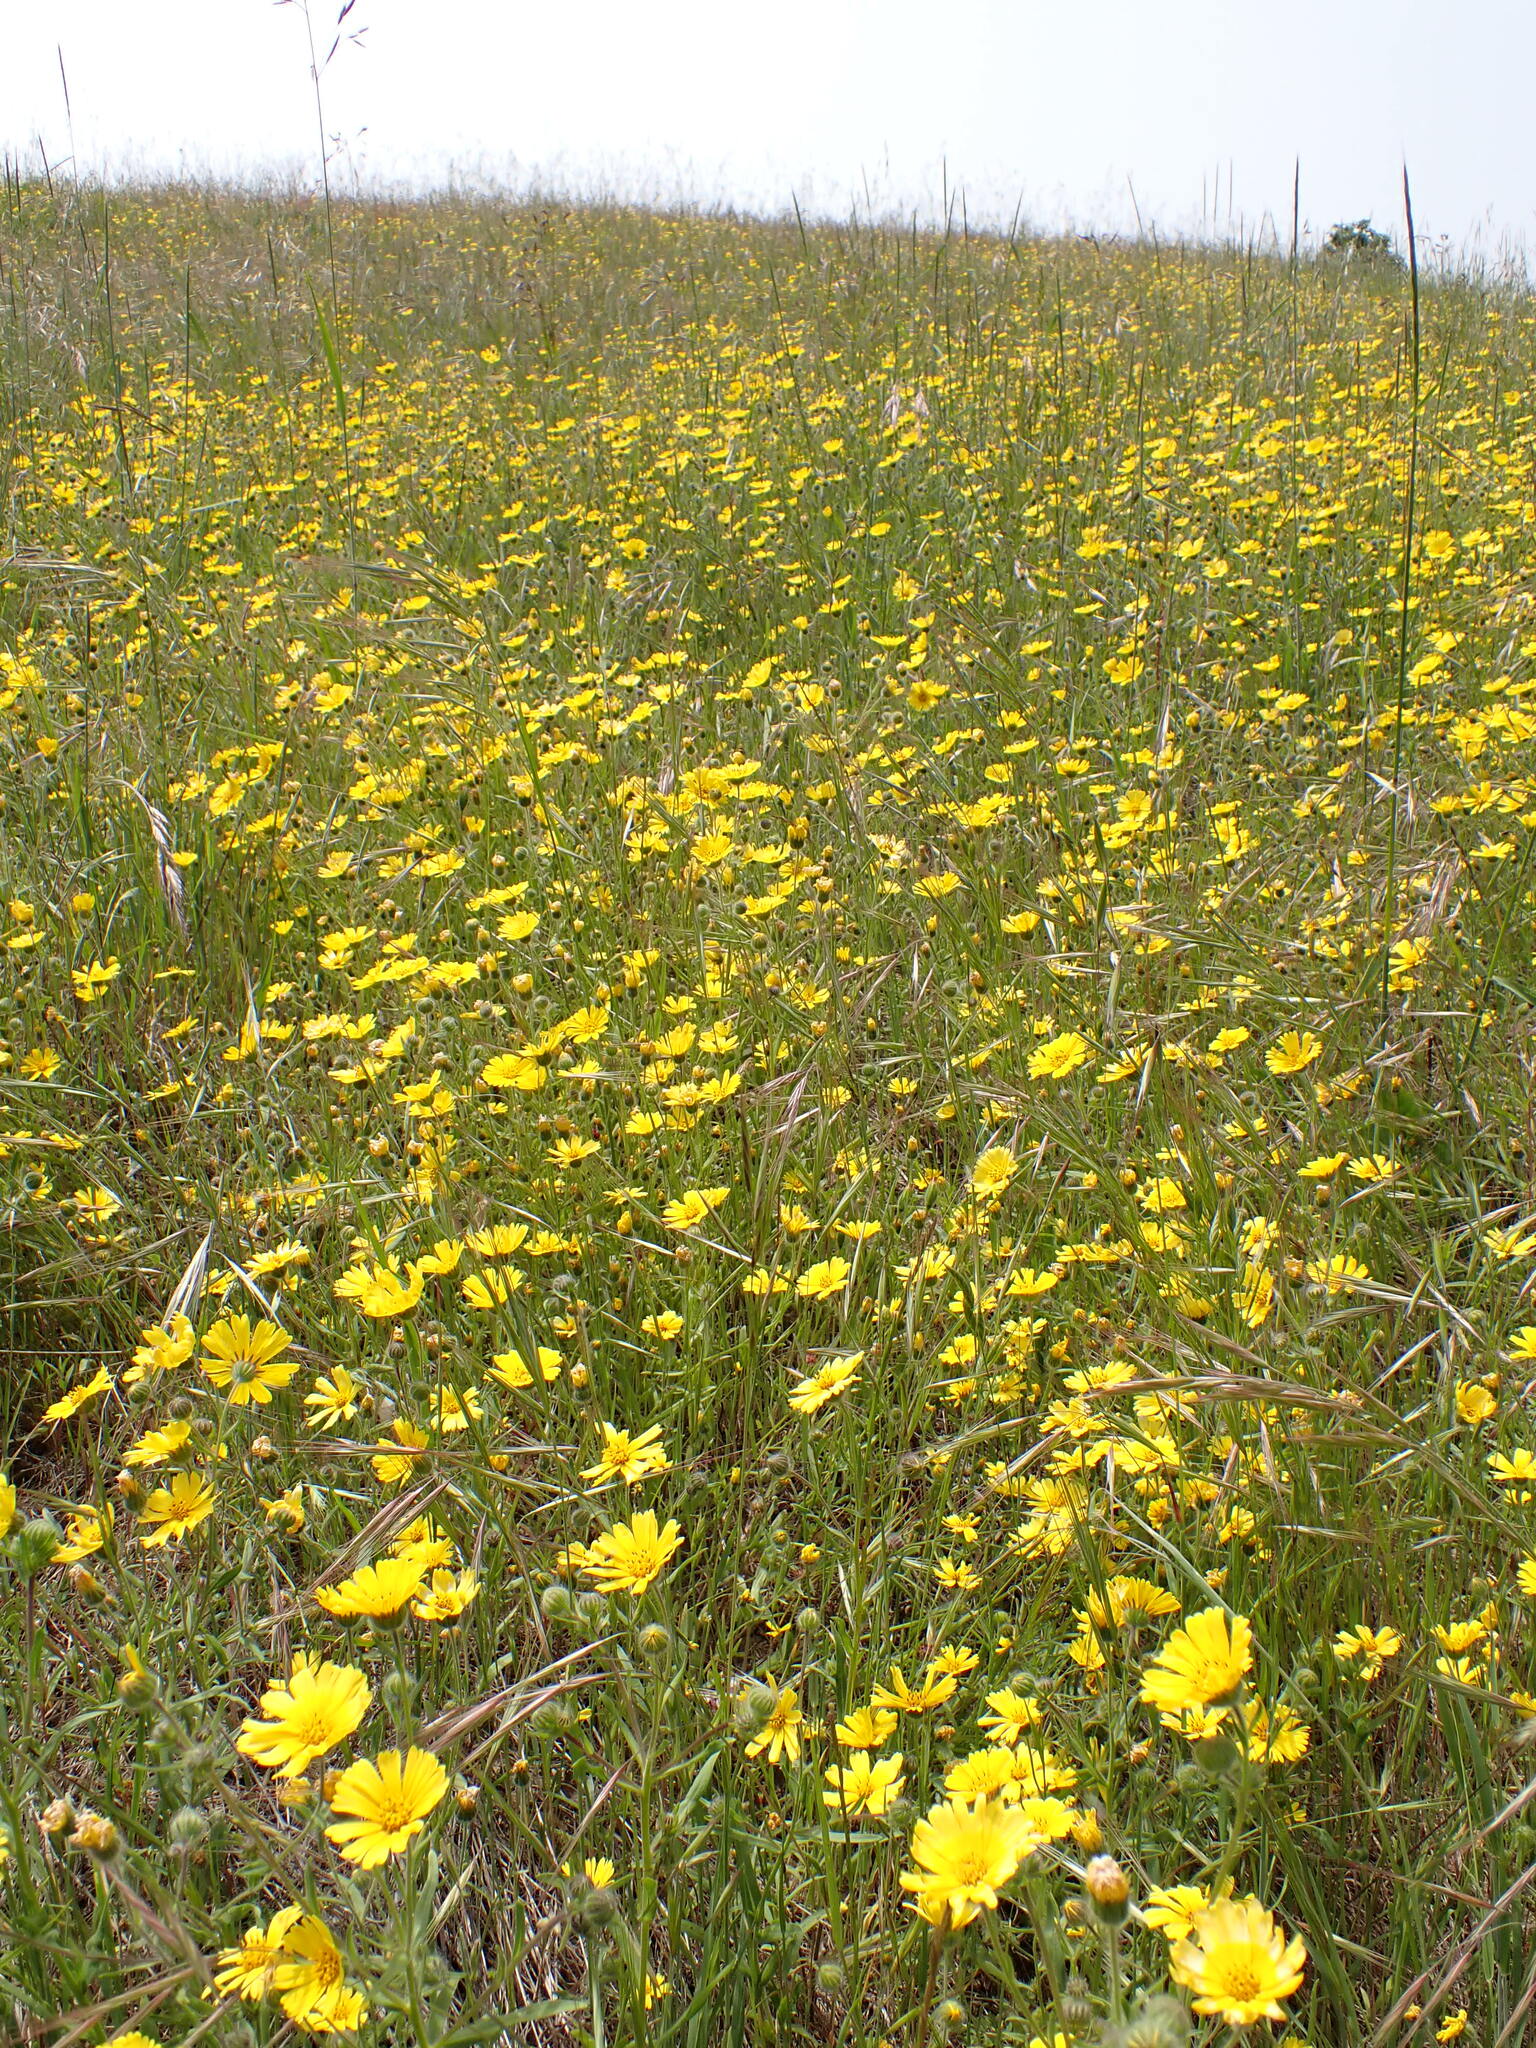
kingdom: Plantae
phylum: Tracheophyta
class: Magnoliopsida
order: Asterales
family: Asteraceae
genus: Madia
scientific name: Madia elegans
